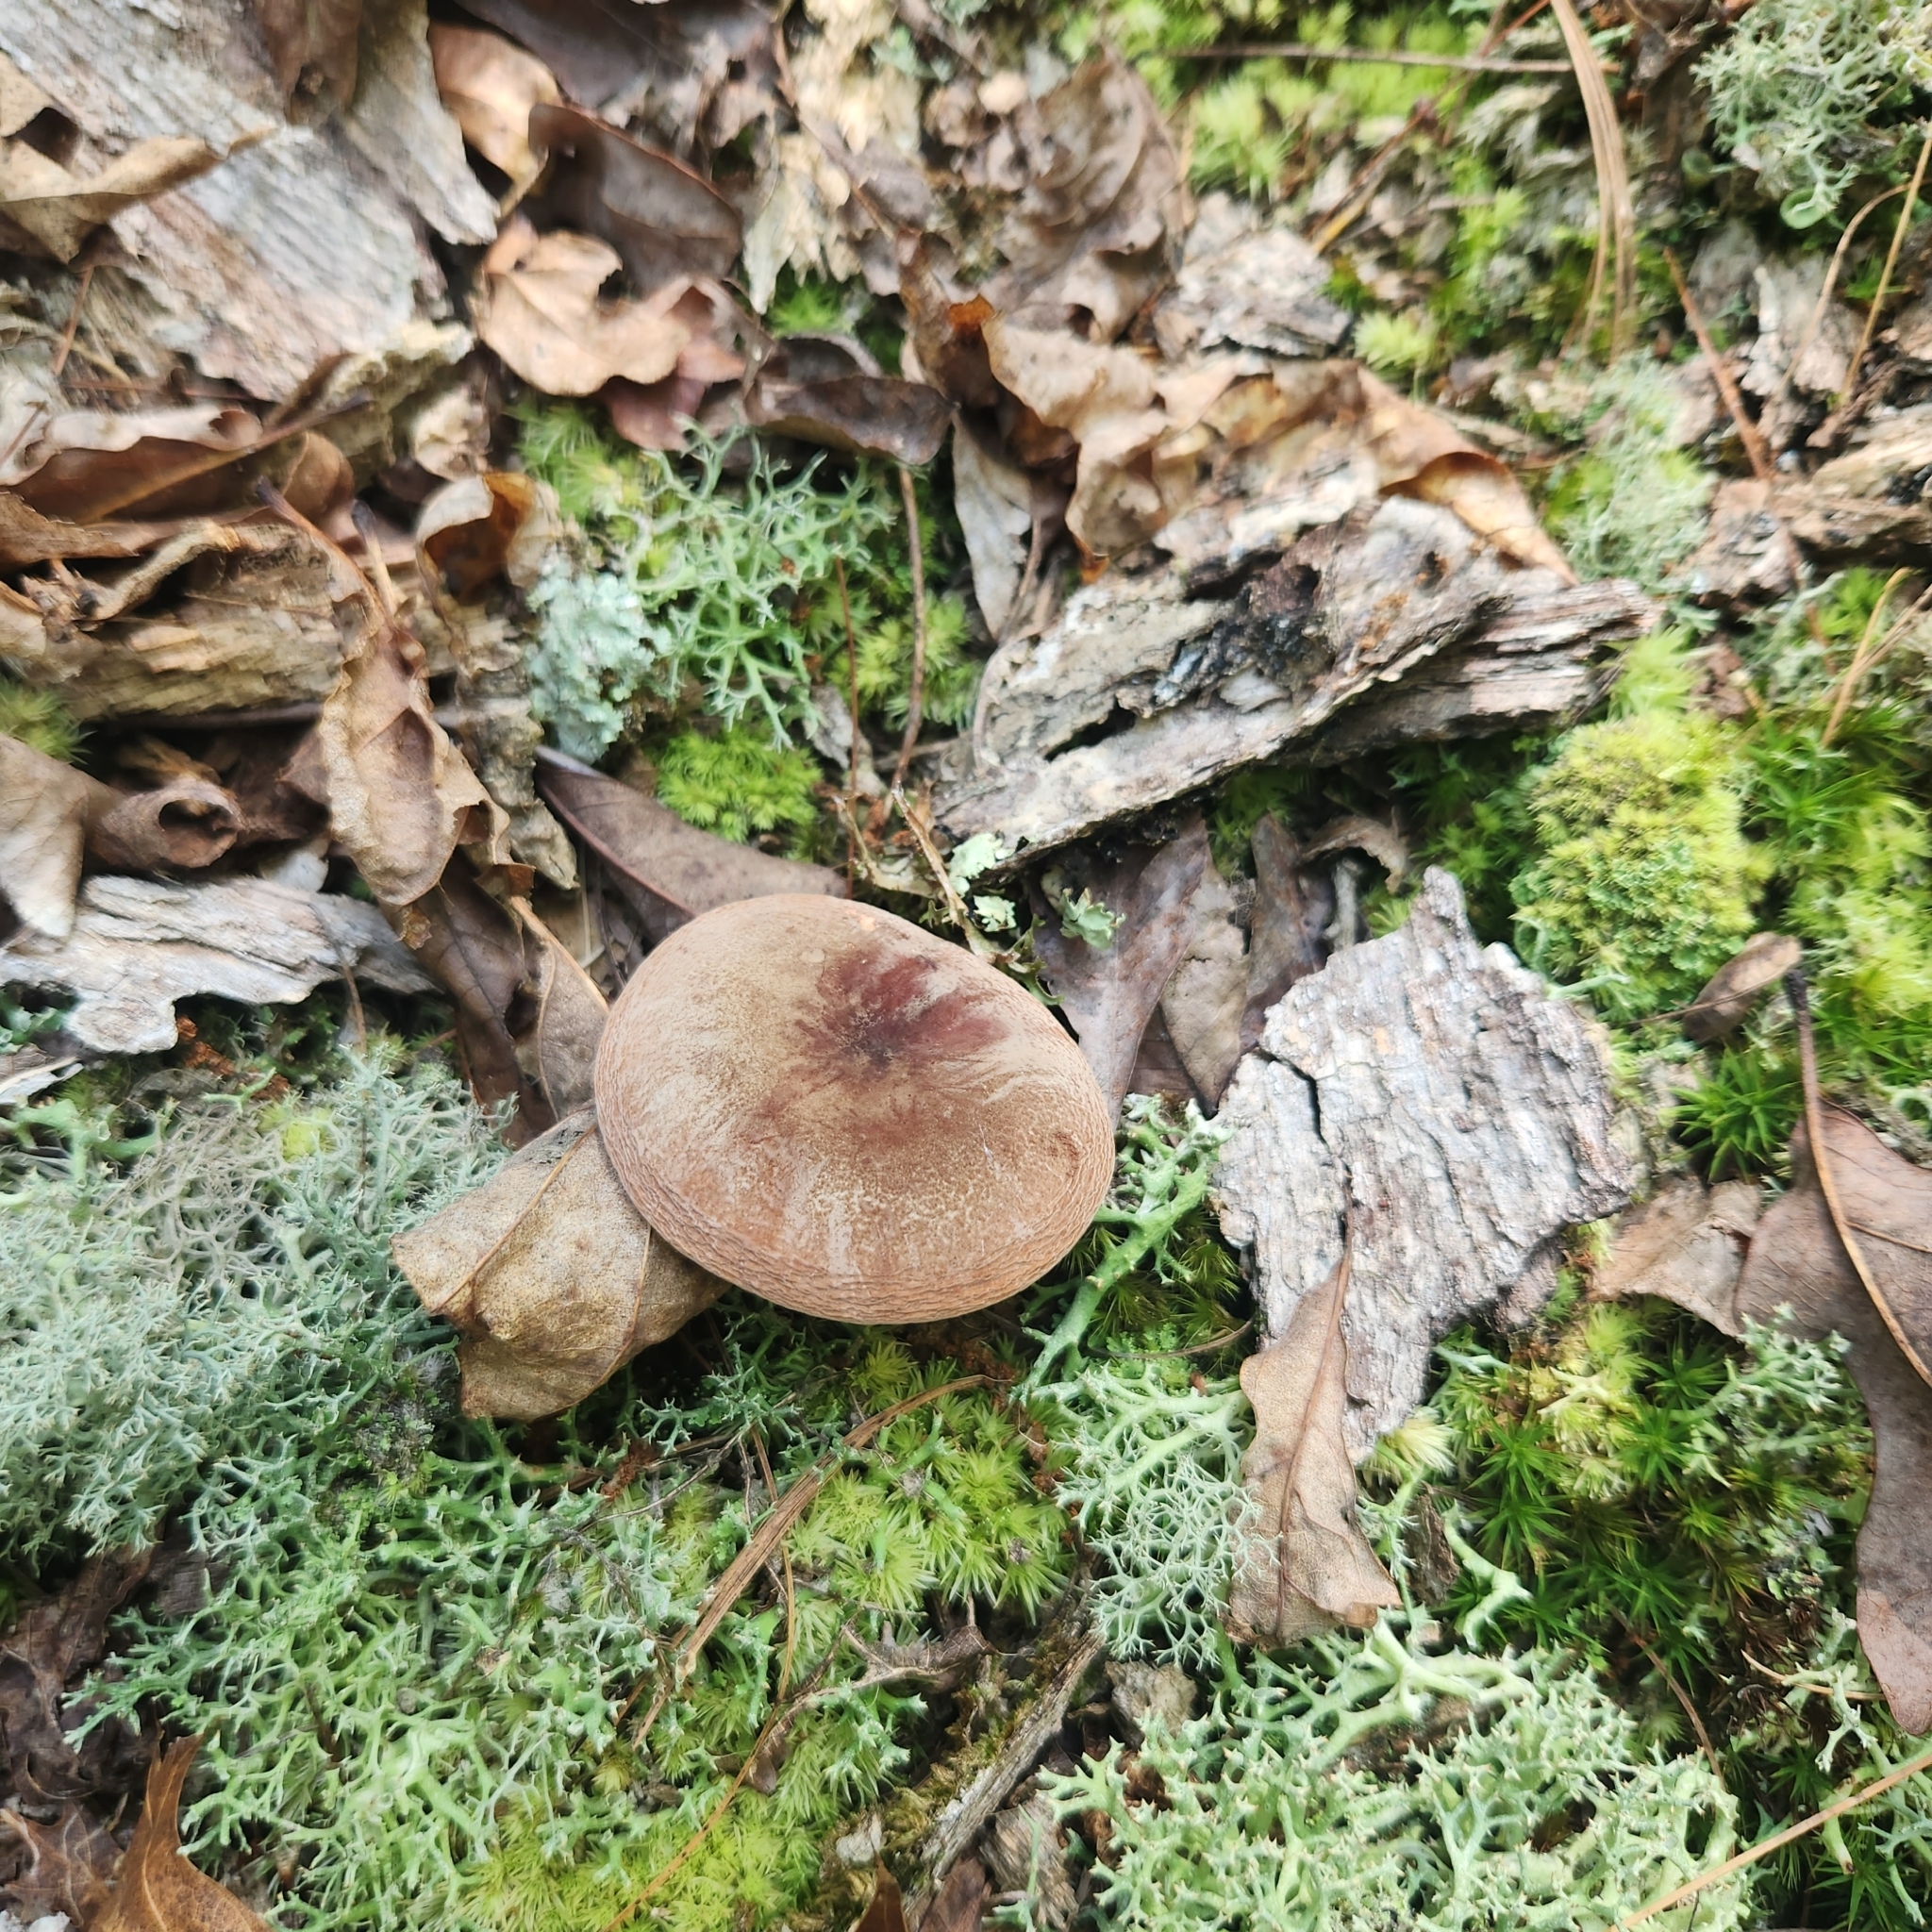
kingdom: Fungi
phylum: Basidiomycota
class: Agaricomycetes
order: Russulales
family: Russulaceae
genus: Lactarius
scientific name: Lactarius corrugis
